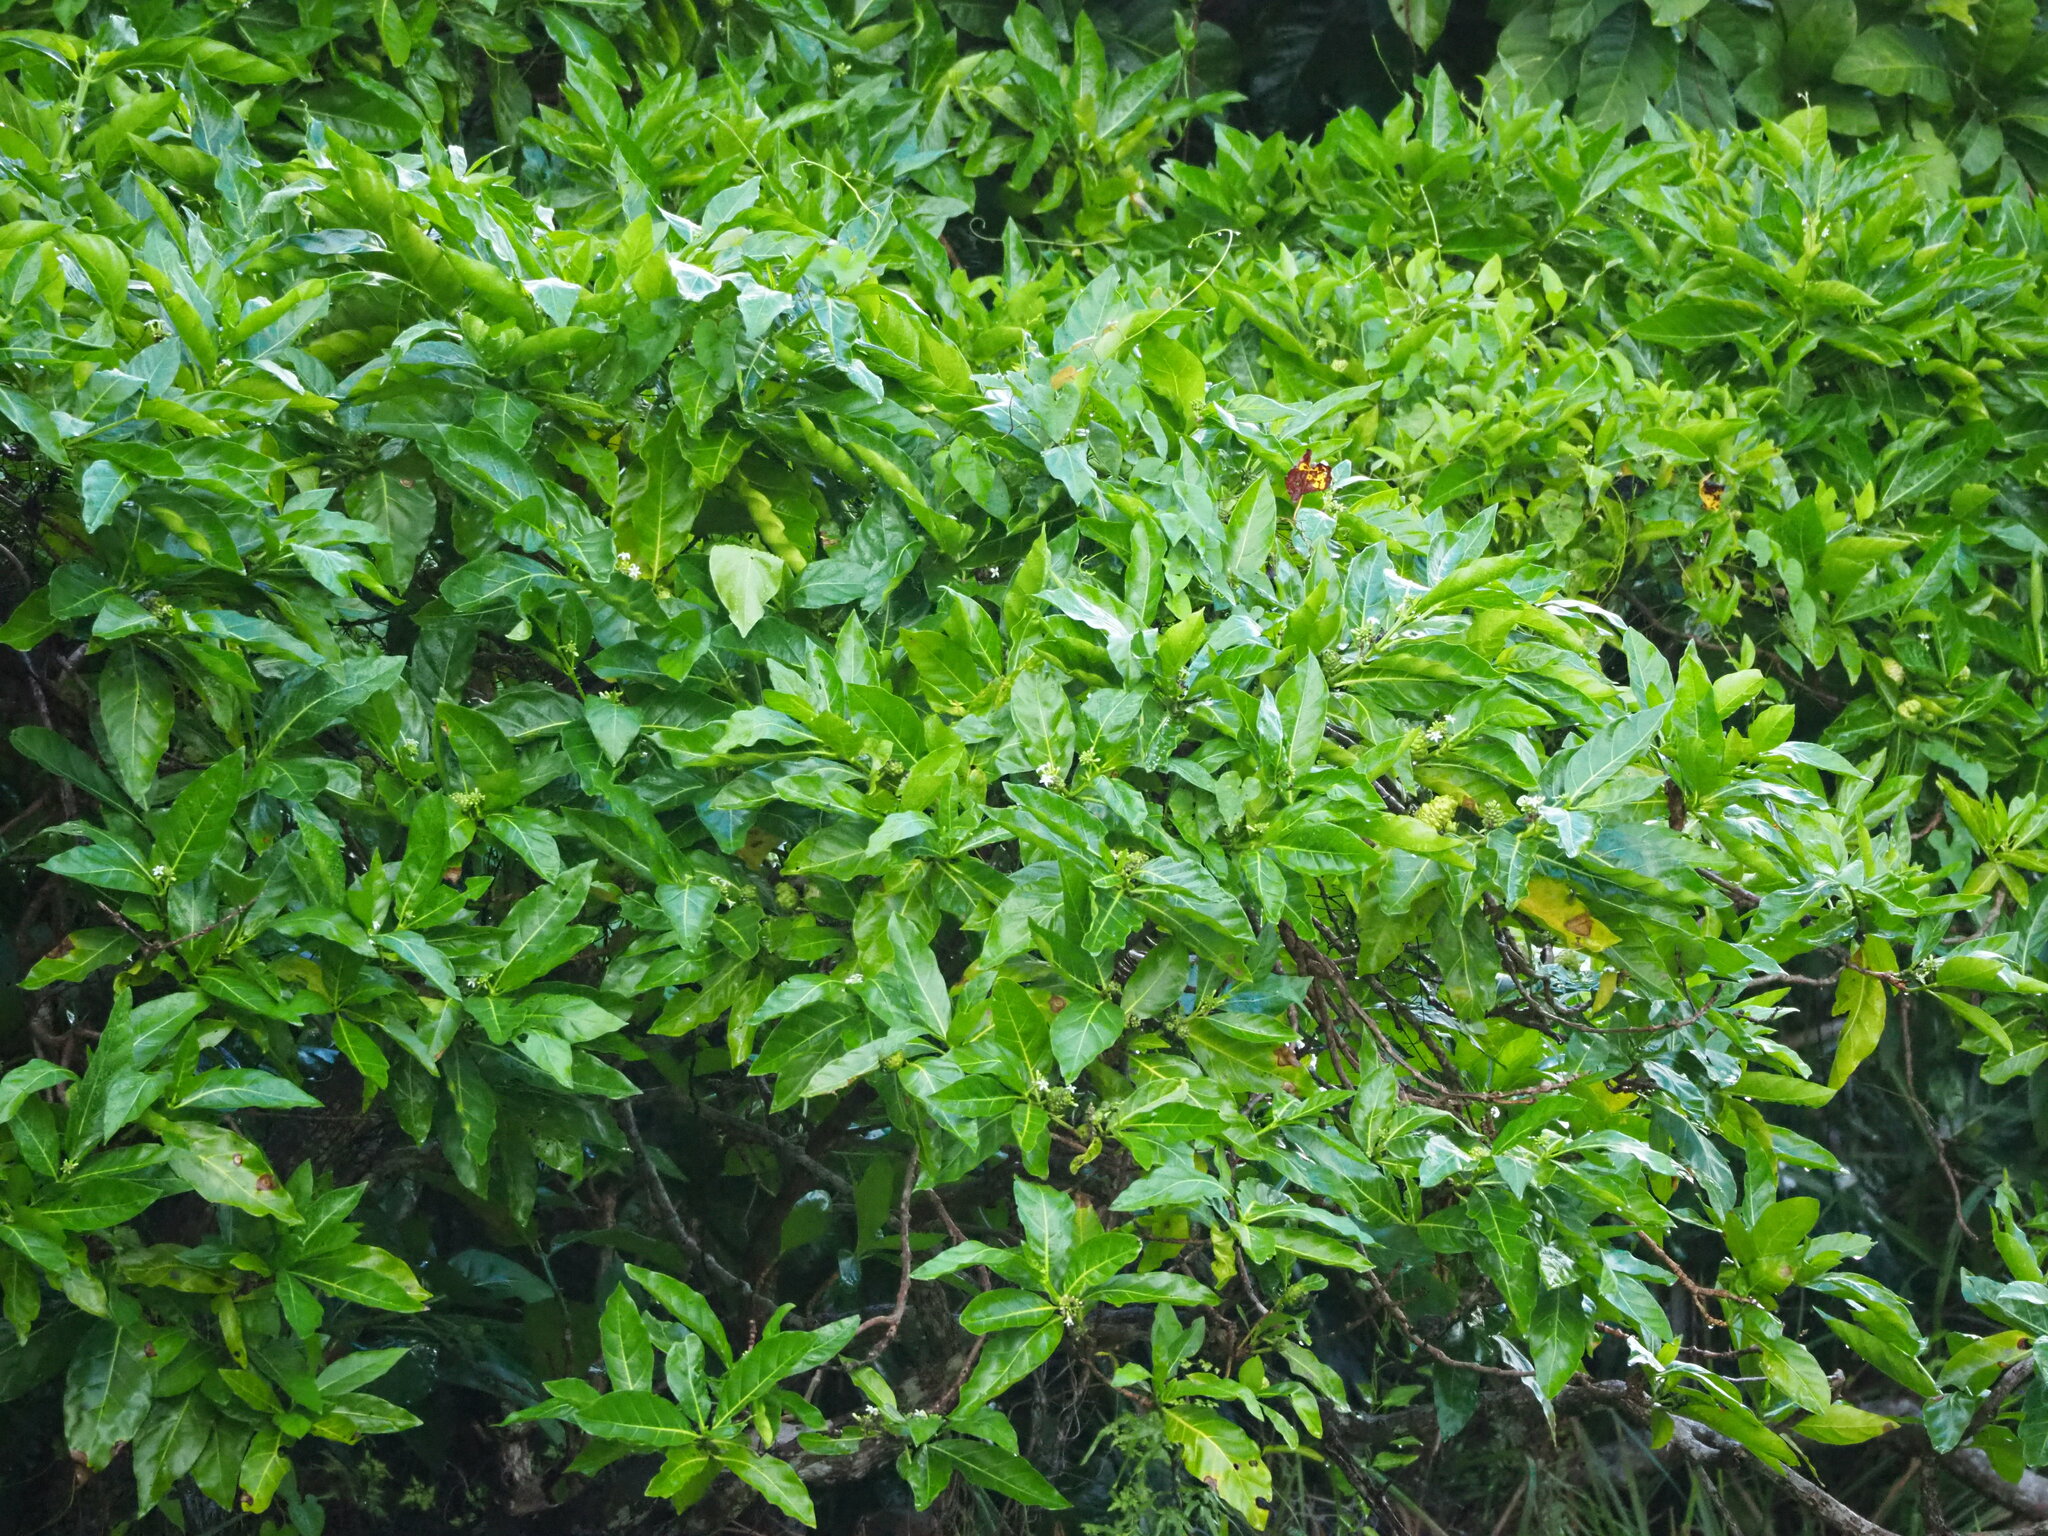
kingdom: Plantae
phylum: Tracheophyta
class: Magnoliopsida
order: Gentianales
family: Rubiaceae
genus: Morinda
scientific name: Morinda citrifolia
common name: Indian-mulberry
